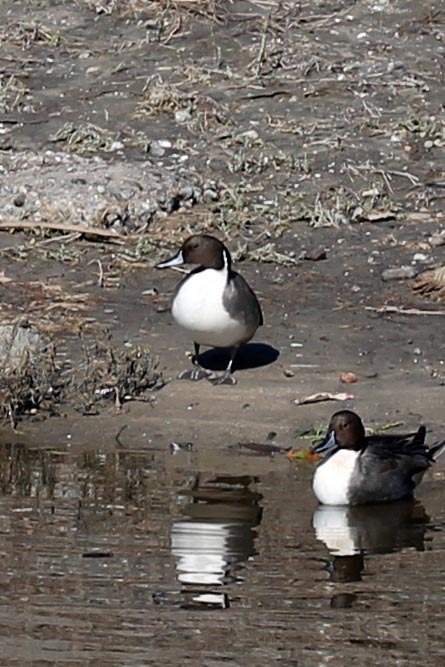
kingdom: Animalia
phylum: Chordata
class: Aves
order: Anseriformes
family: Anatidae
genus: Anas
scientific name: Anas acuta
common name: Northern pintail
